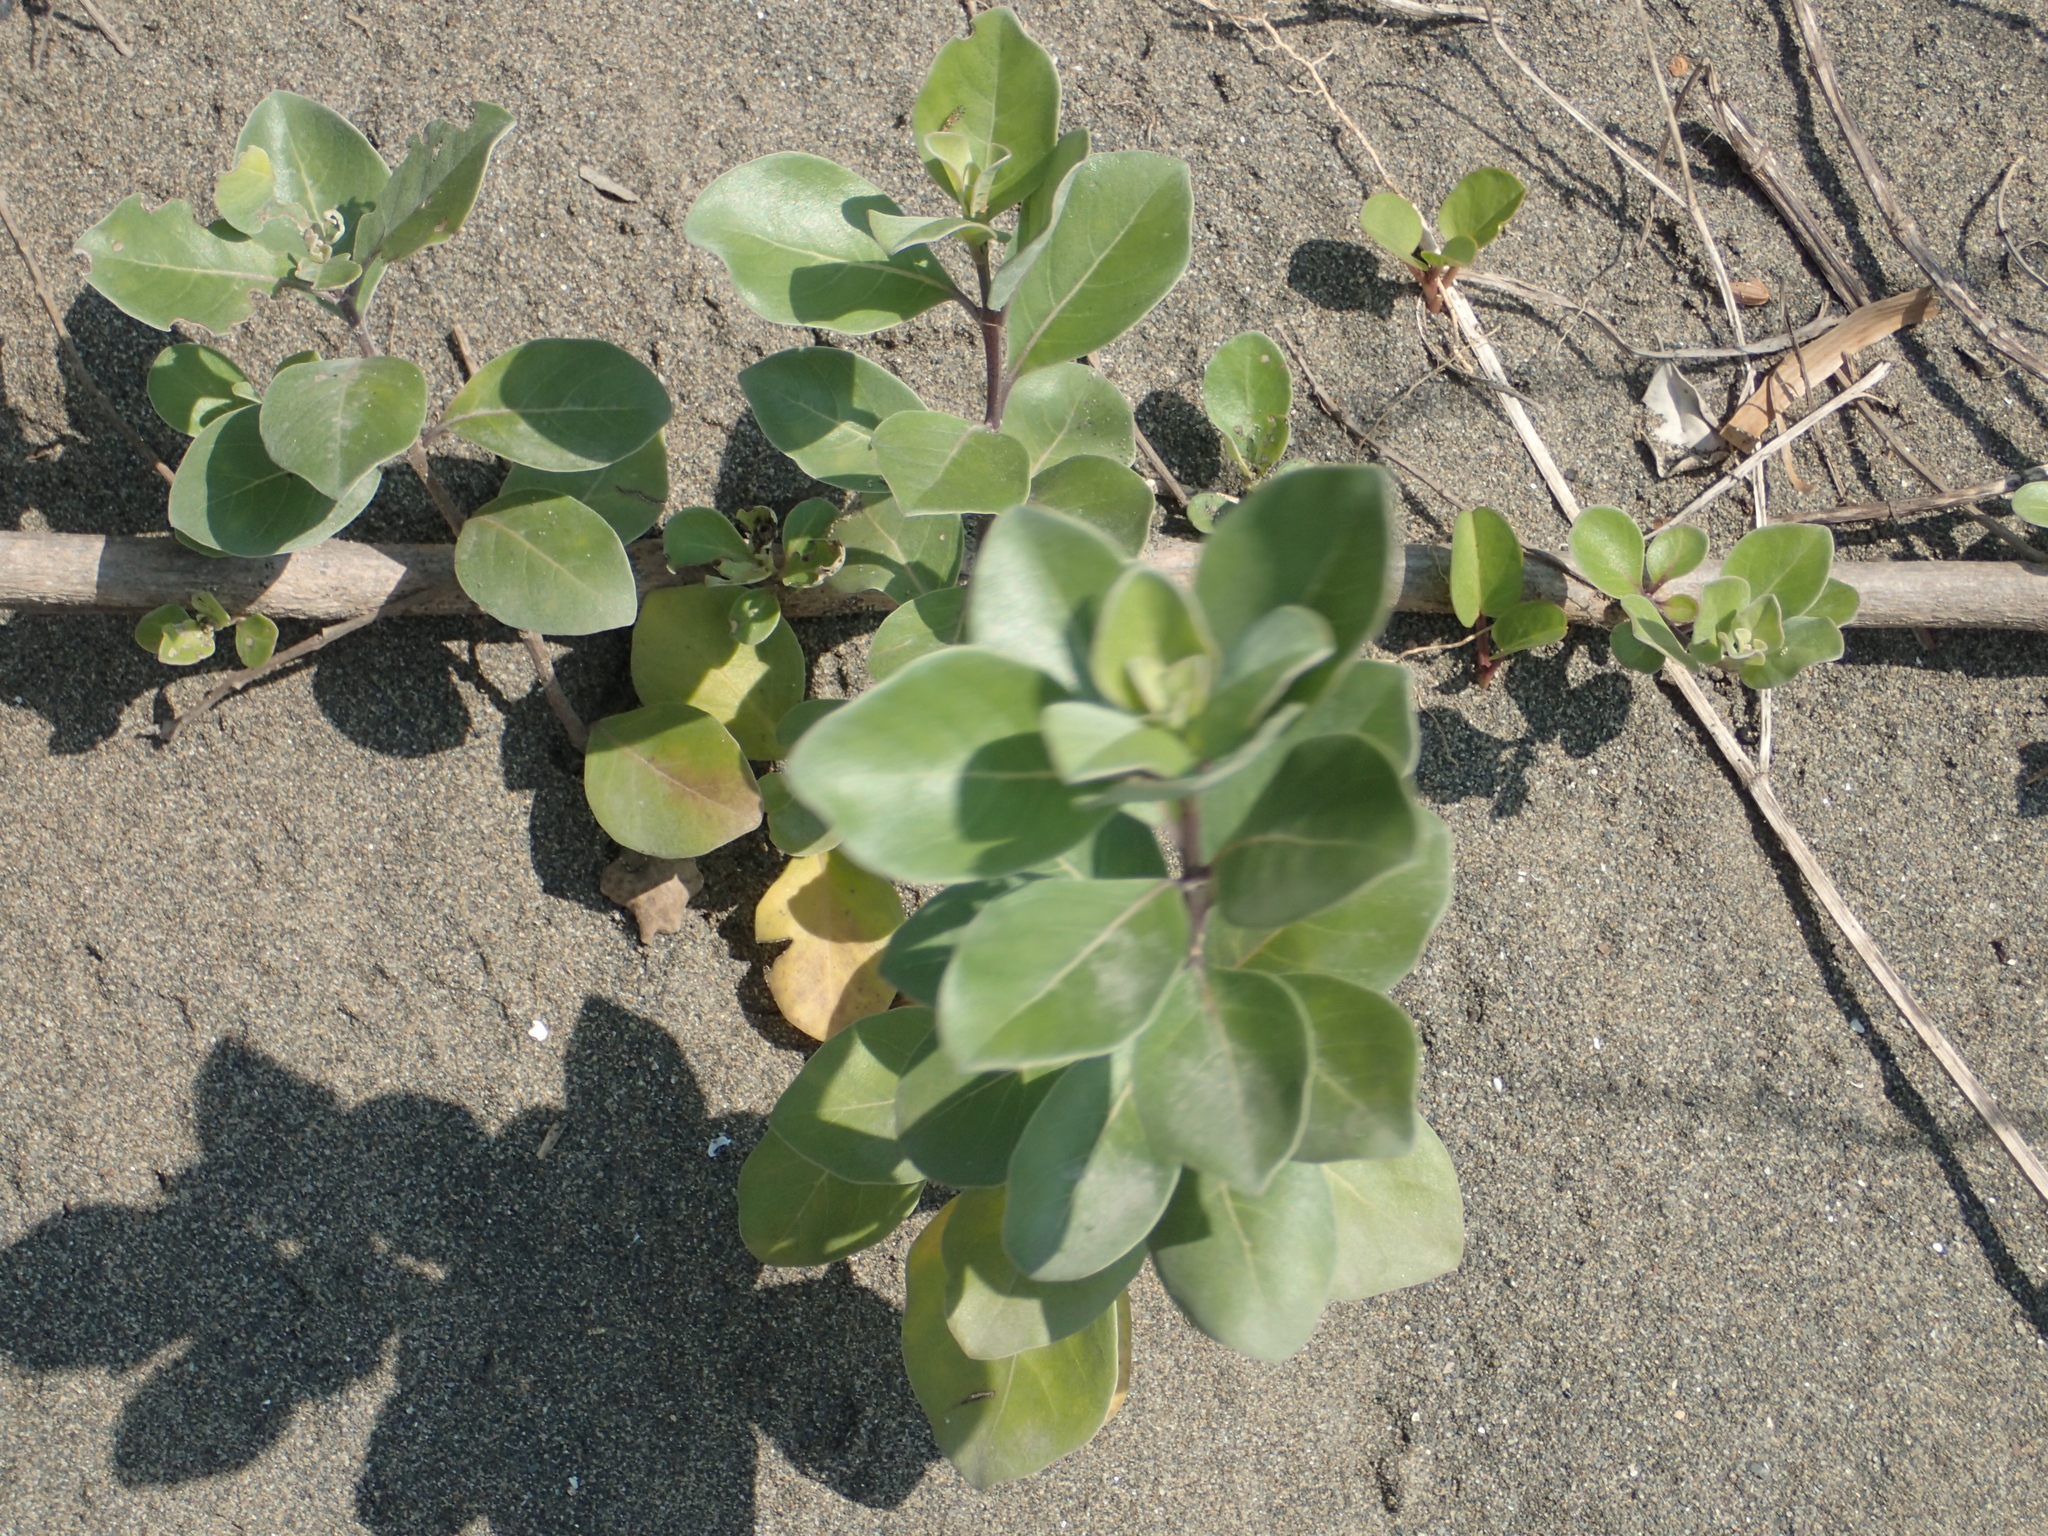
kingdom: Plantae
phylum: Tracheophyta
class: Magnoliopsida
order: Lamiales
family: Lamiaceae
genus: Vitex
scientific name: Vitex rotundifolia
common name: Beach vitex
